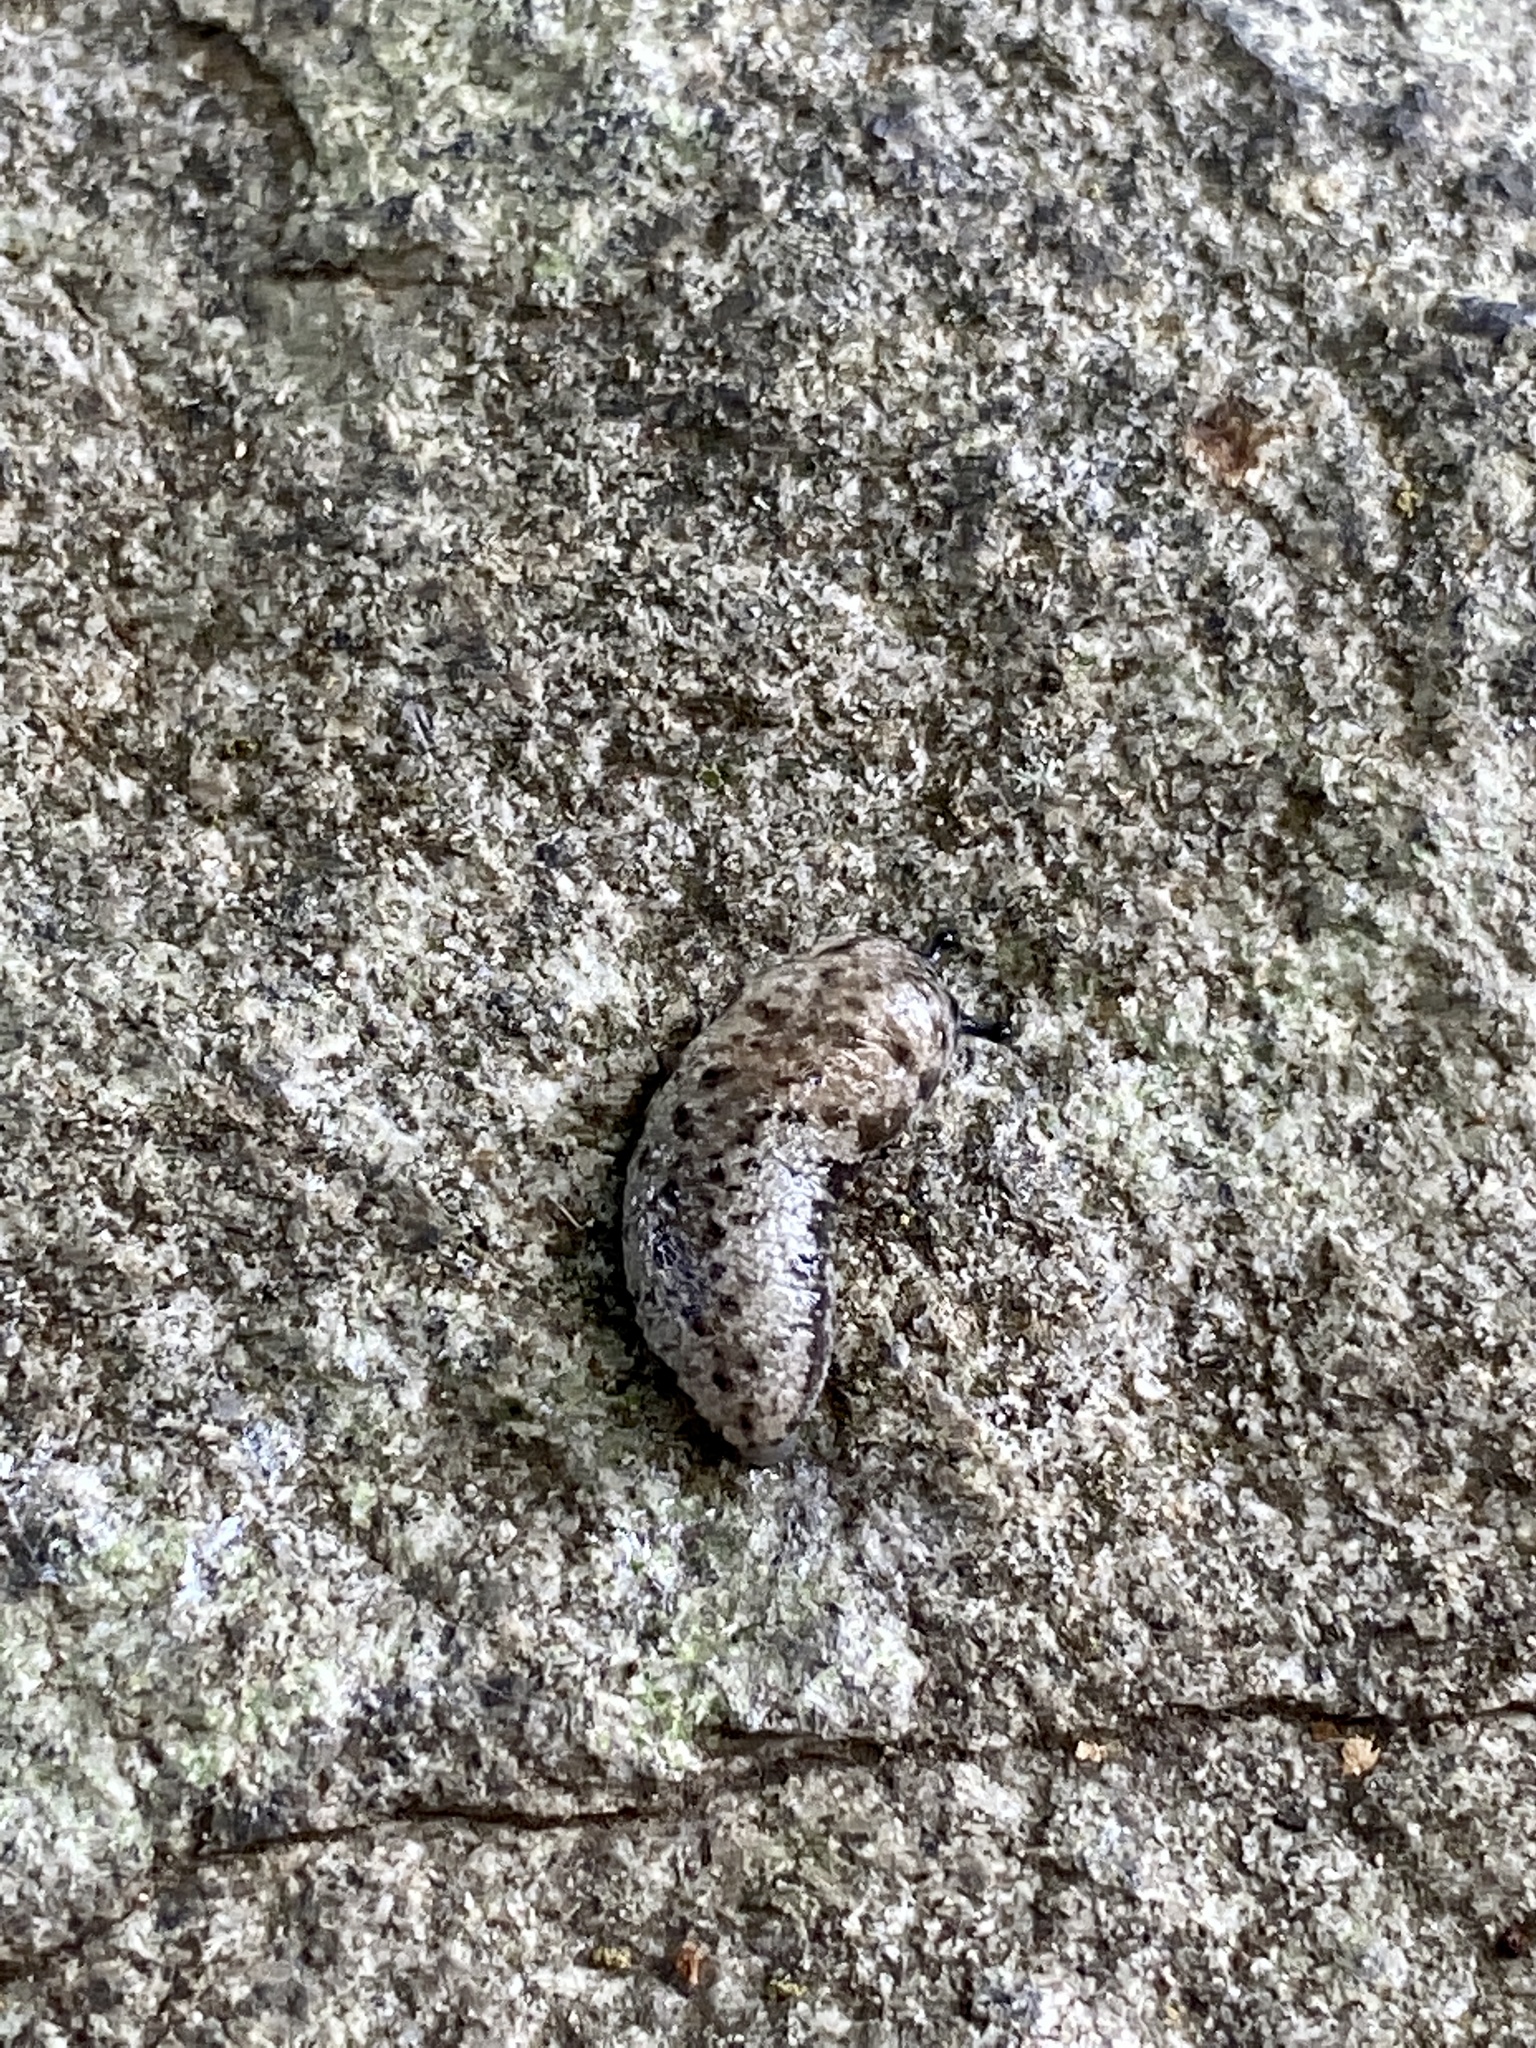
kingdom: Animalia
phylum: Mollusca
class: Gastropoda
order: Stylommatophora
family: Philomycidae
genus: Megapallifera
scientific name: Megapallifera mutabilis
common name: Changeable mantleslug
